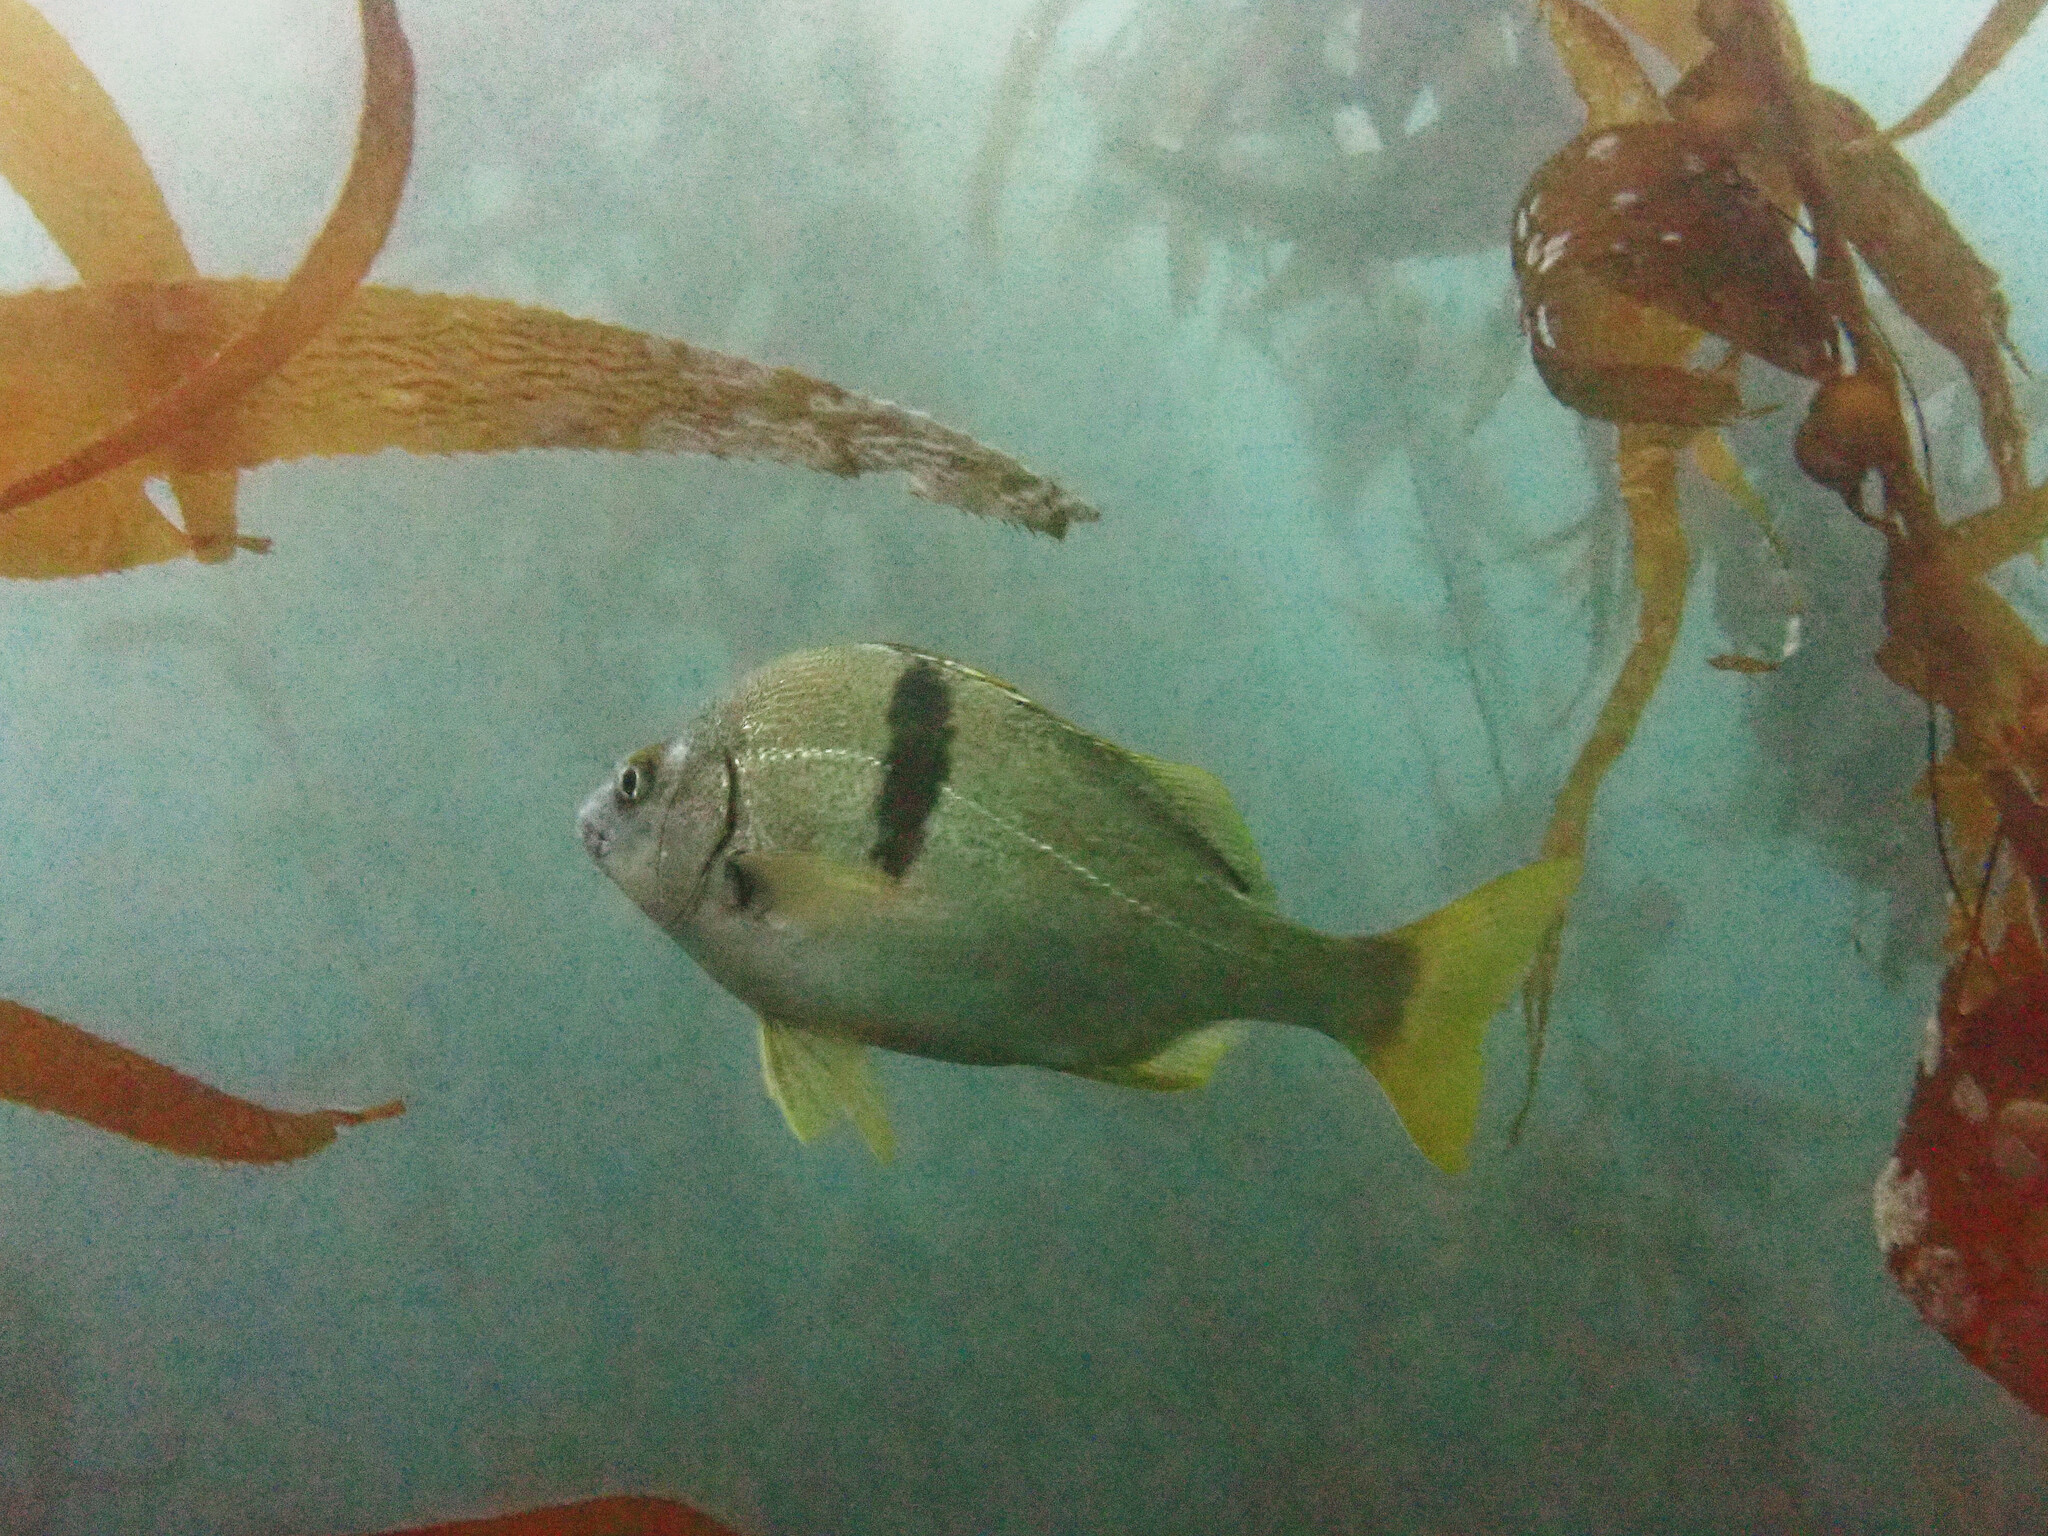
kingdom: Animalia
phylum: Chordata
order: Perciformes
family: Haemulidae
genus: Anisotremus
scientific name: Anisotremus davidsonii
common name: Grunt
